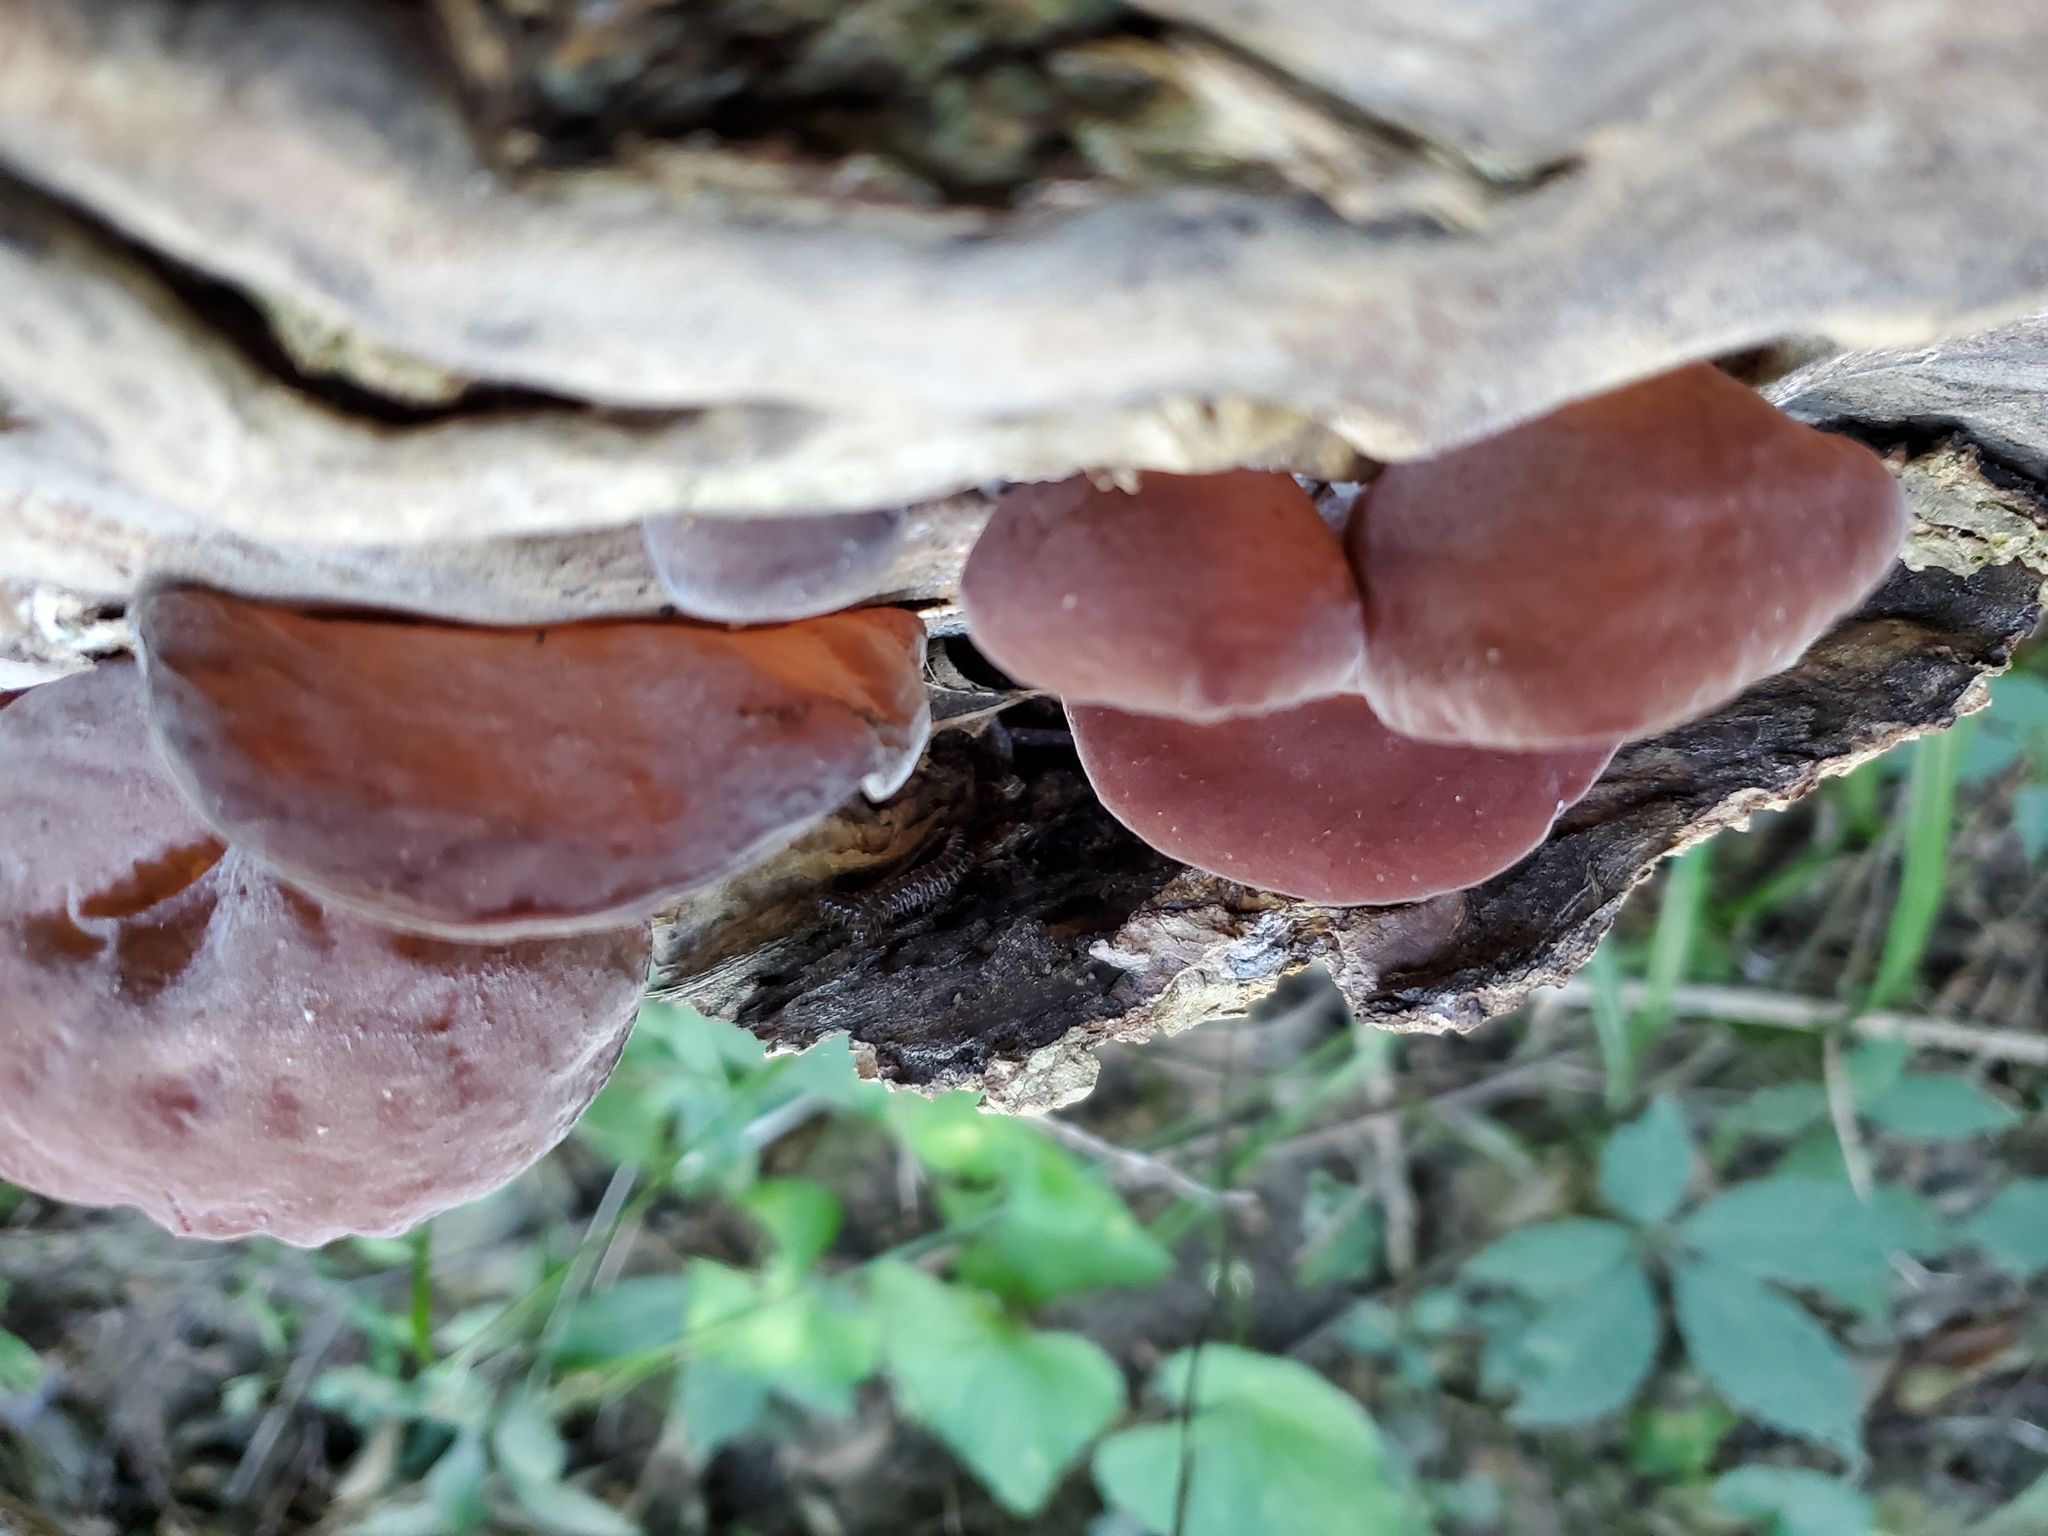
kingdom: Fungi
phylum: Basidiomycota
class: Agaricomycetes
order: Auriculariales
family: Auriculariaceae
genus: Auricularia
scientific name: Auricularia fuscosuccinea
